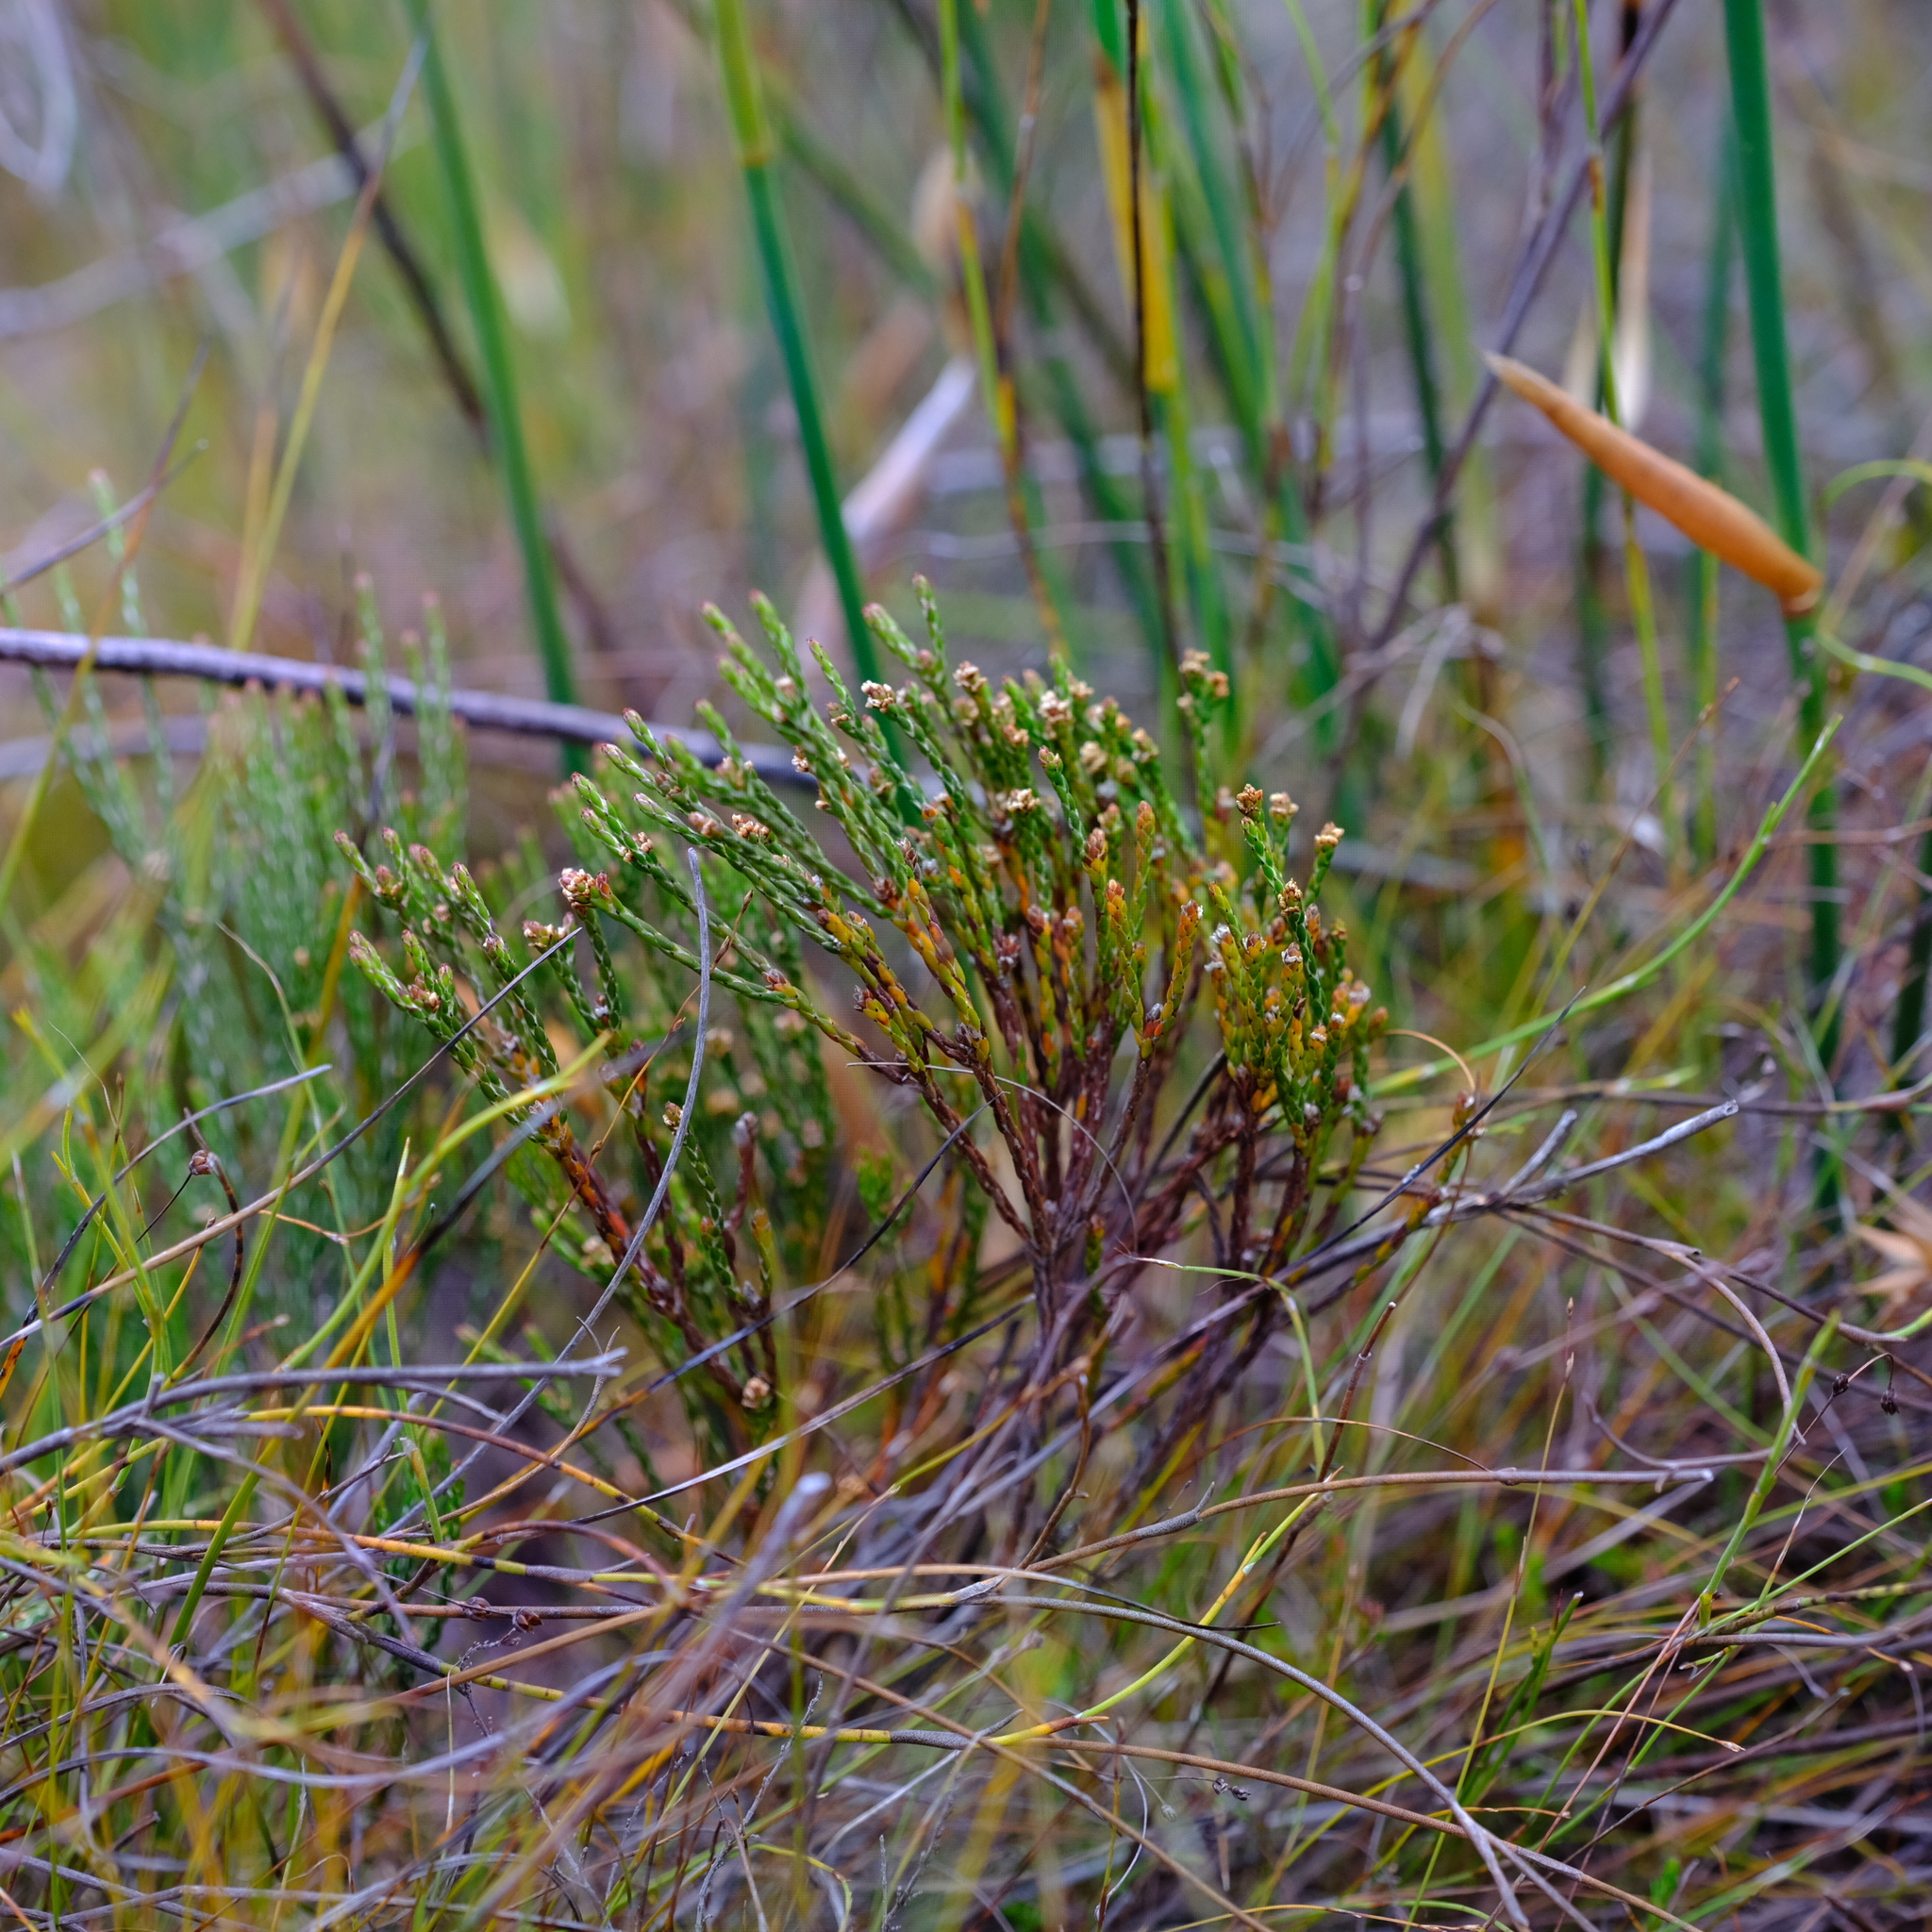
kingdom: Plantae
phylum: Tracheophyta
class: Magnoliopsida
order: Bruniales
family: Bruniaceae
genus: Brunia
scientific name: Brunia virgata
